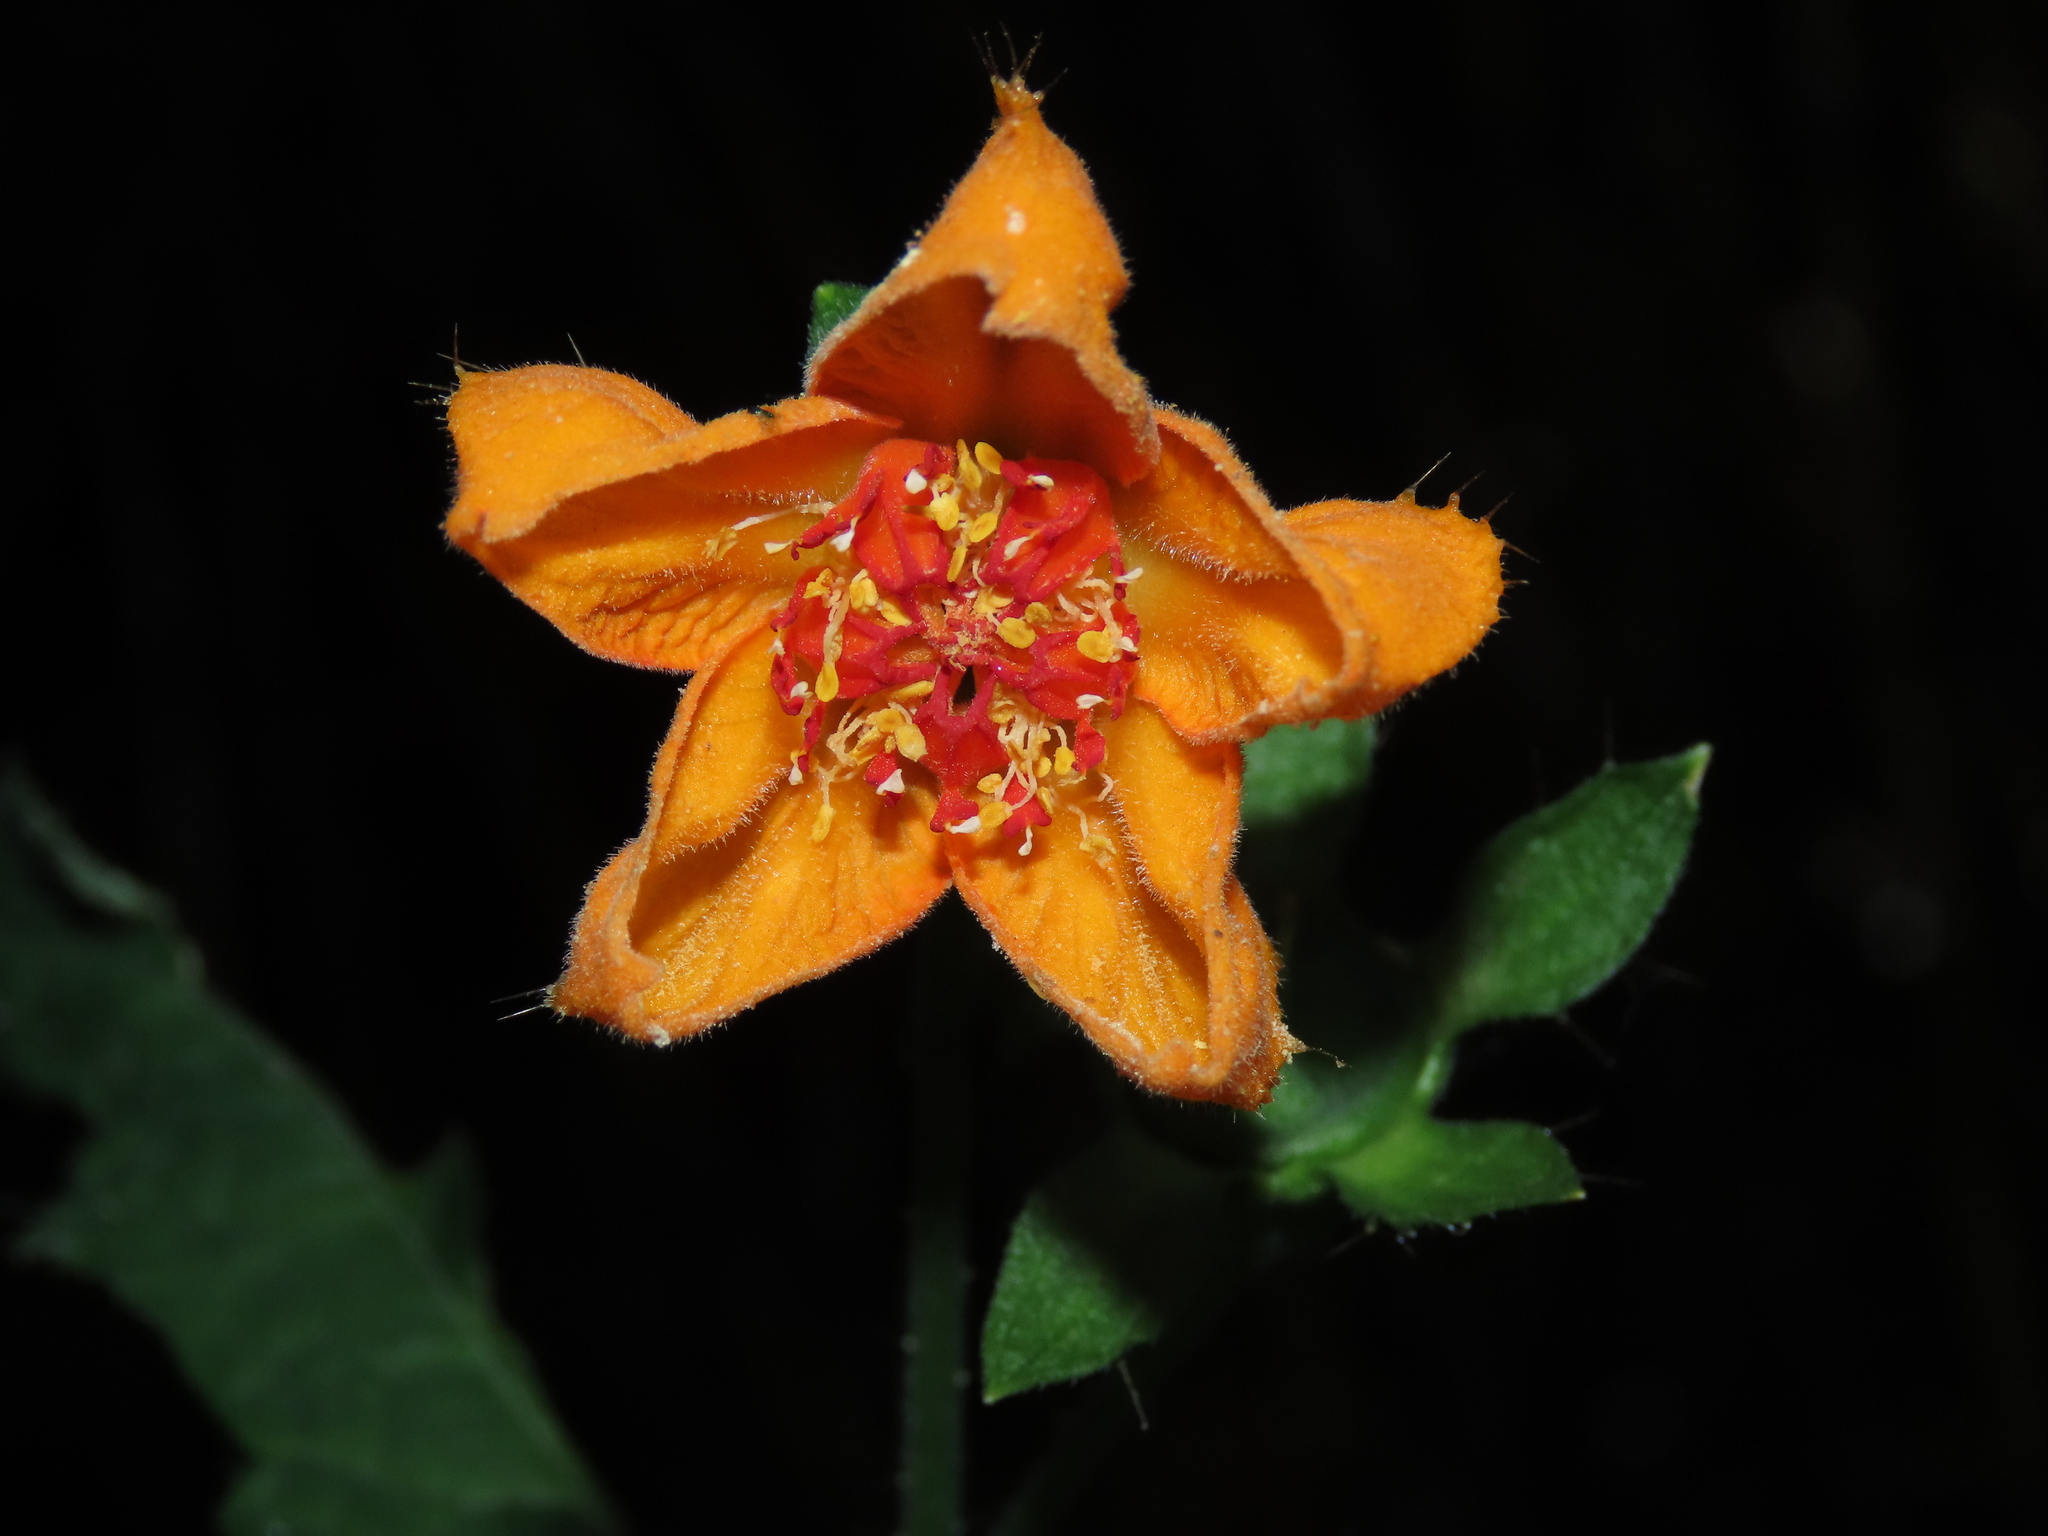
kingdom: Plantae
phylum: Tracheophyta
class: Magnoliopsida
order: Cornales
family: Loasaceae
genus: Loasa
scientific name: Loasa acanthifolia
